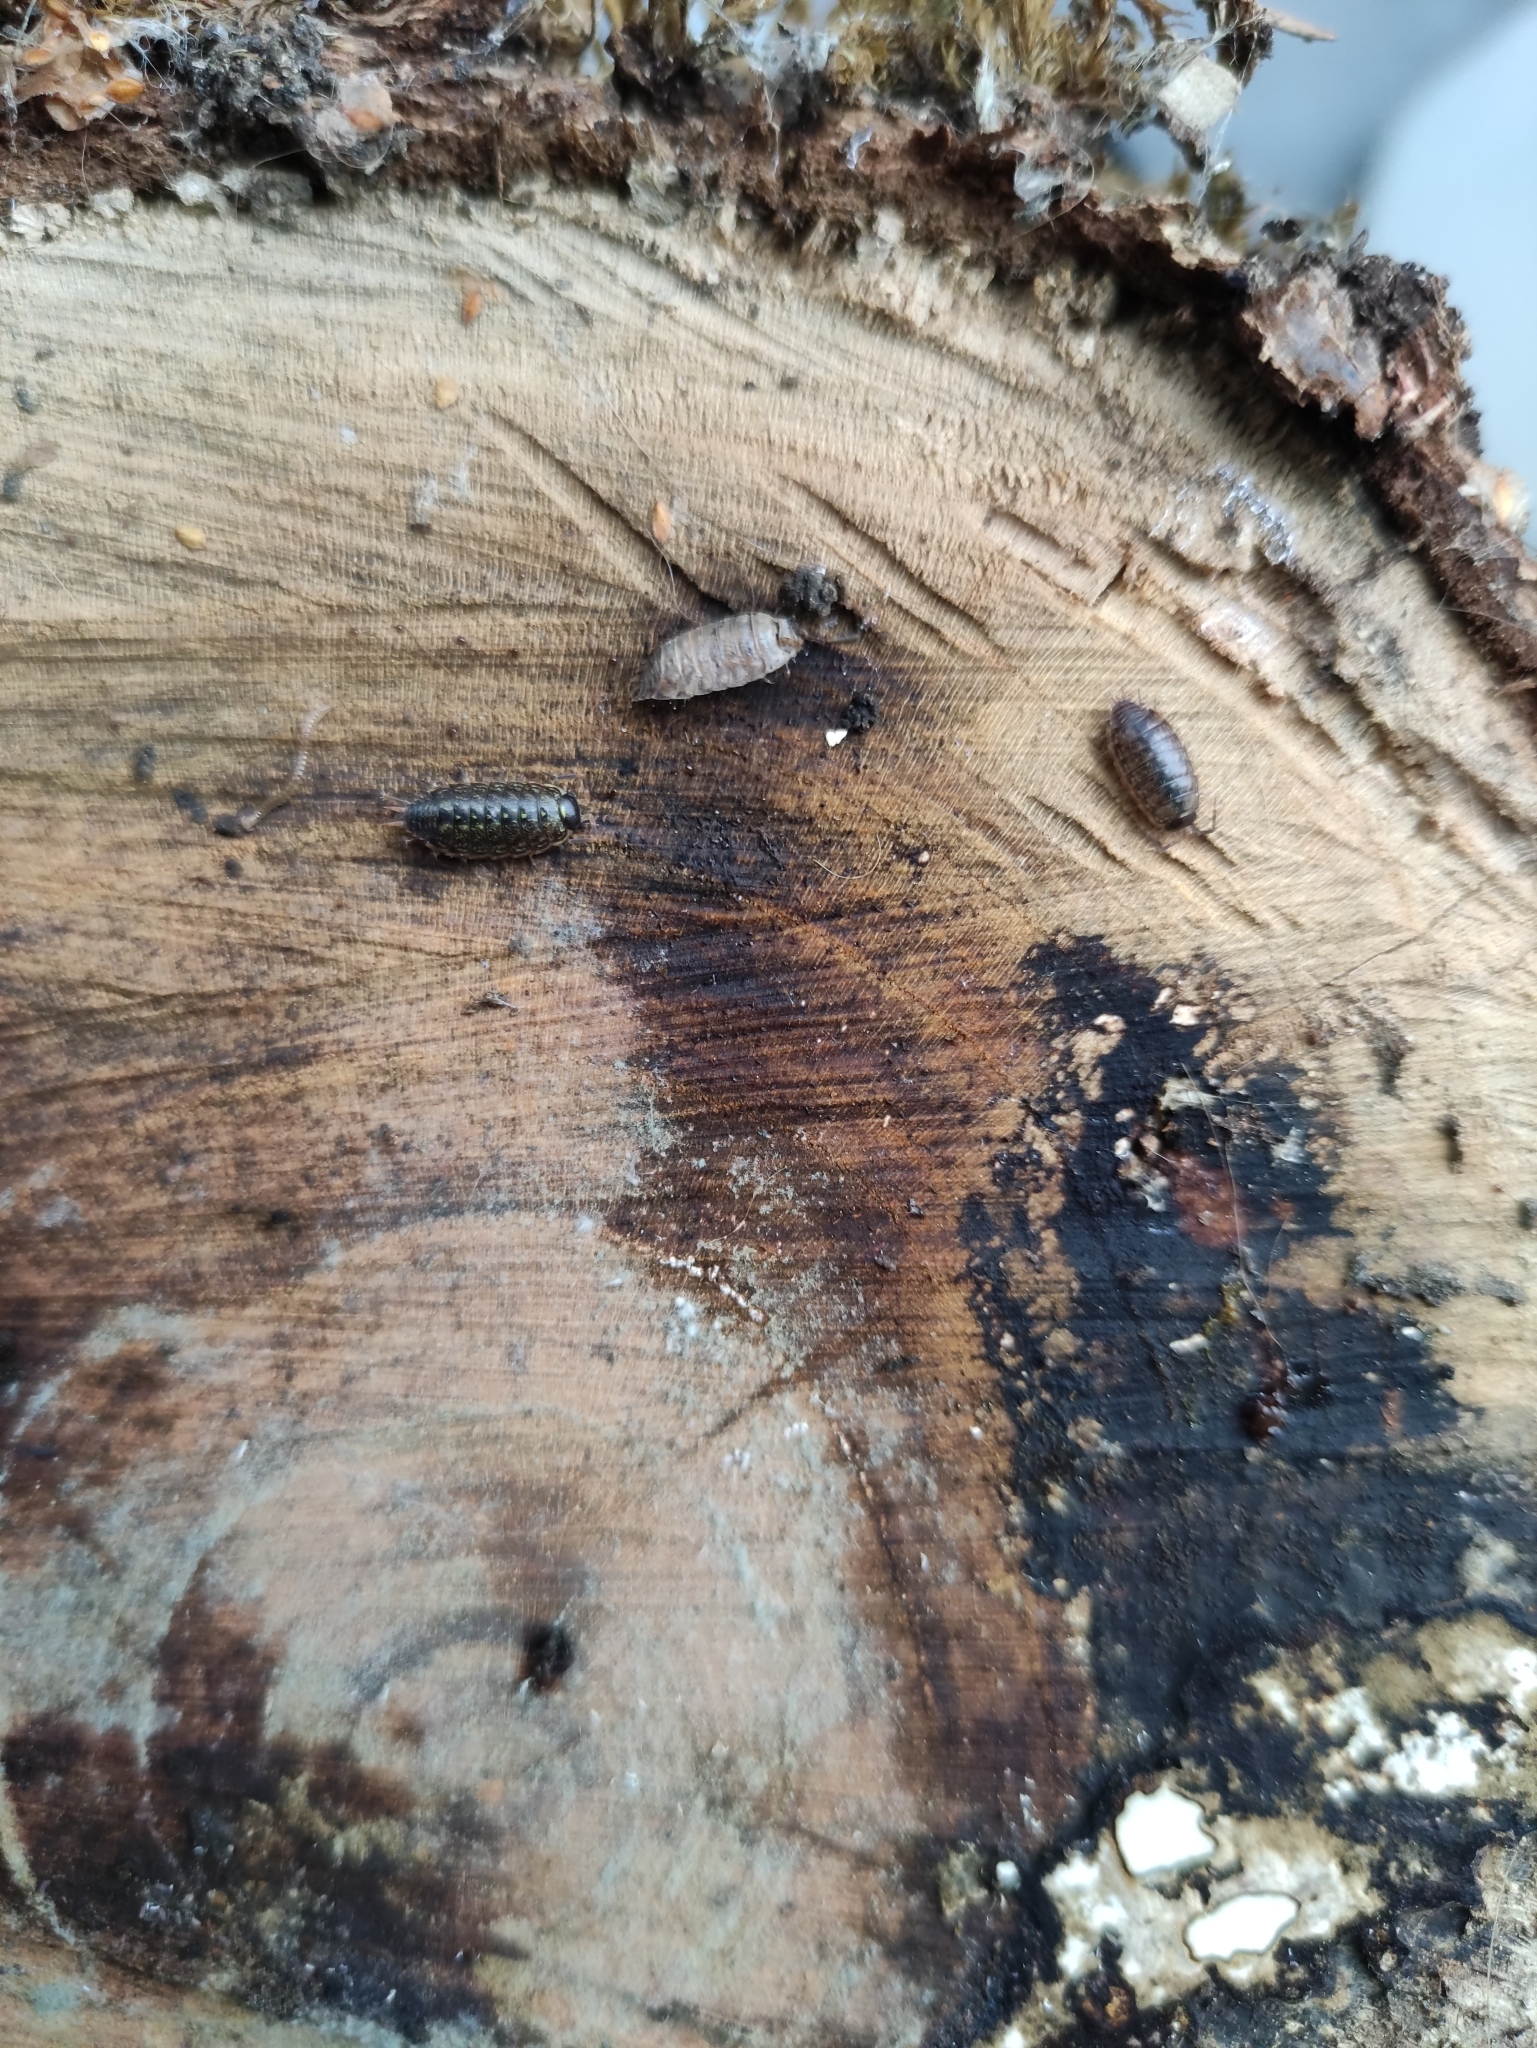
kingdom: Animalia
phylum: Arthropoda
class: Malacostraca
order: Isopoda
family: Philosciidae
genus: Philoscia
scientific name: Philoscia muscorum
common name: Common striped woodlouse
